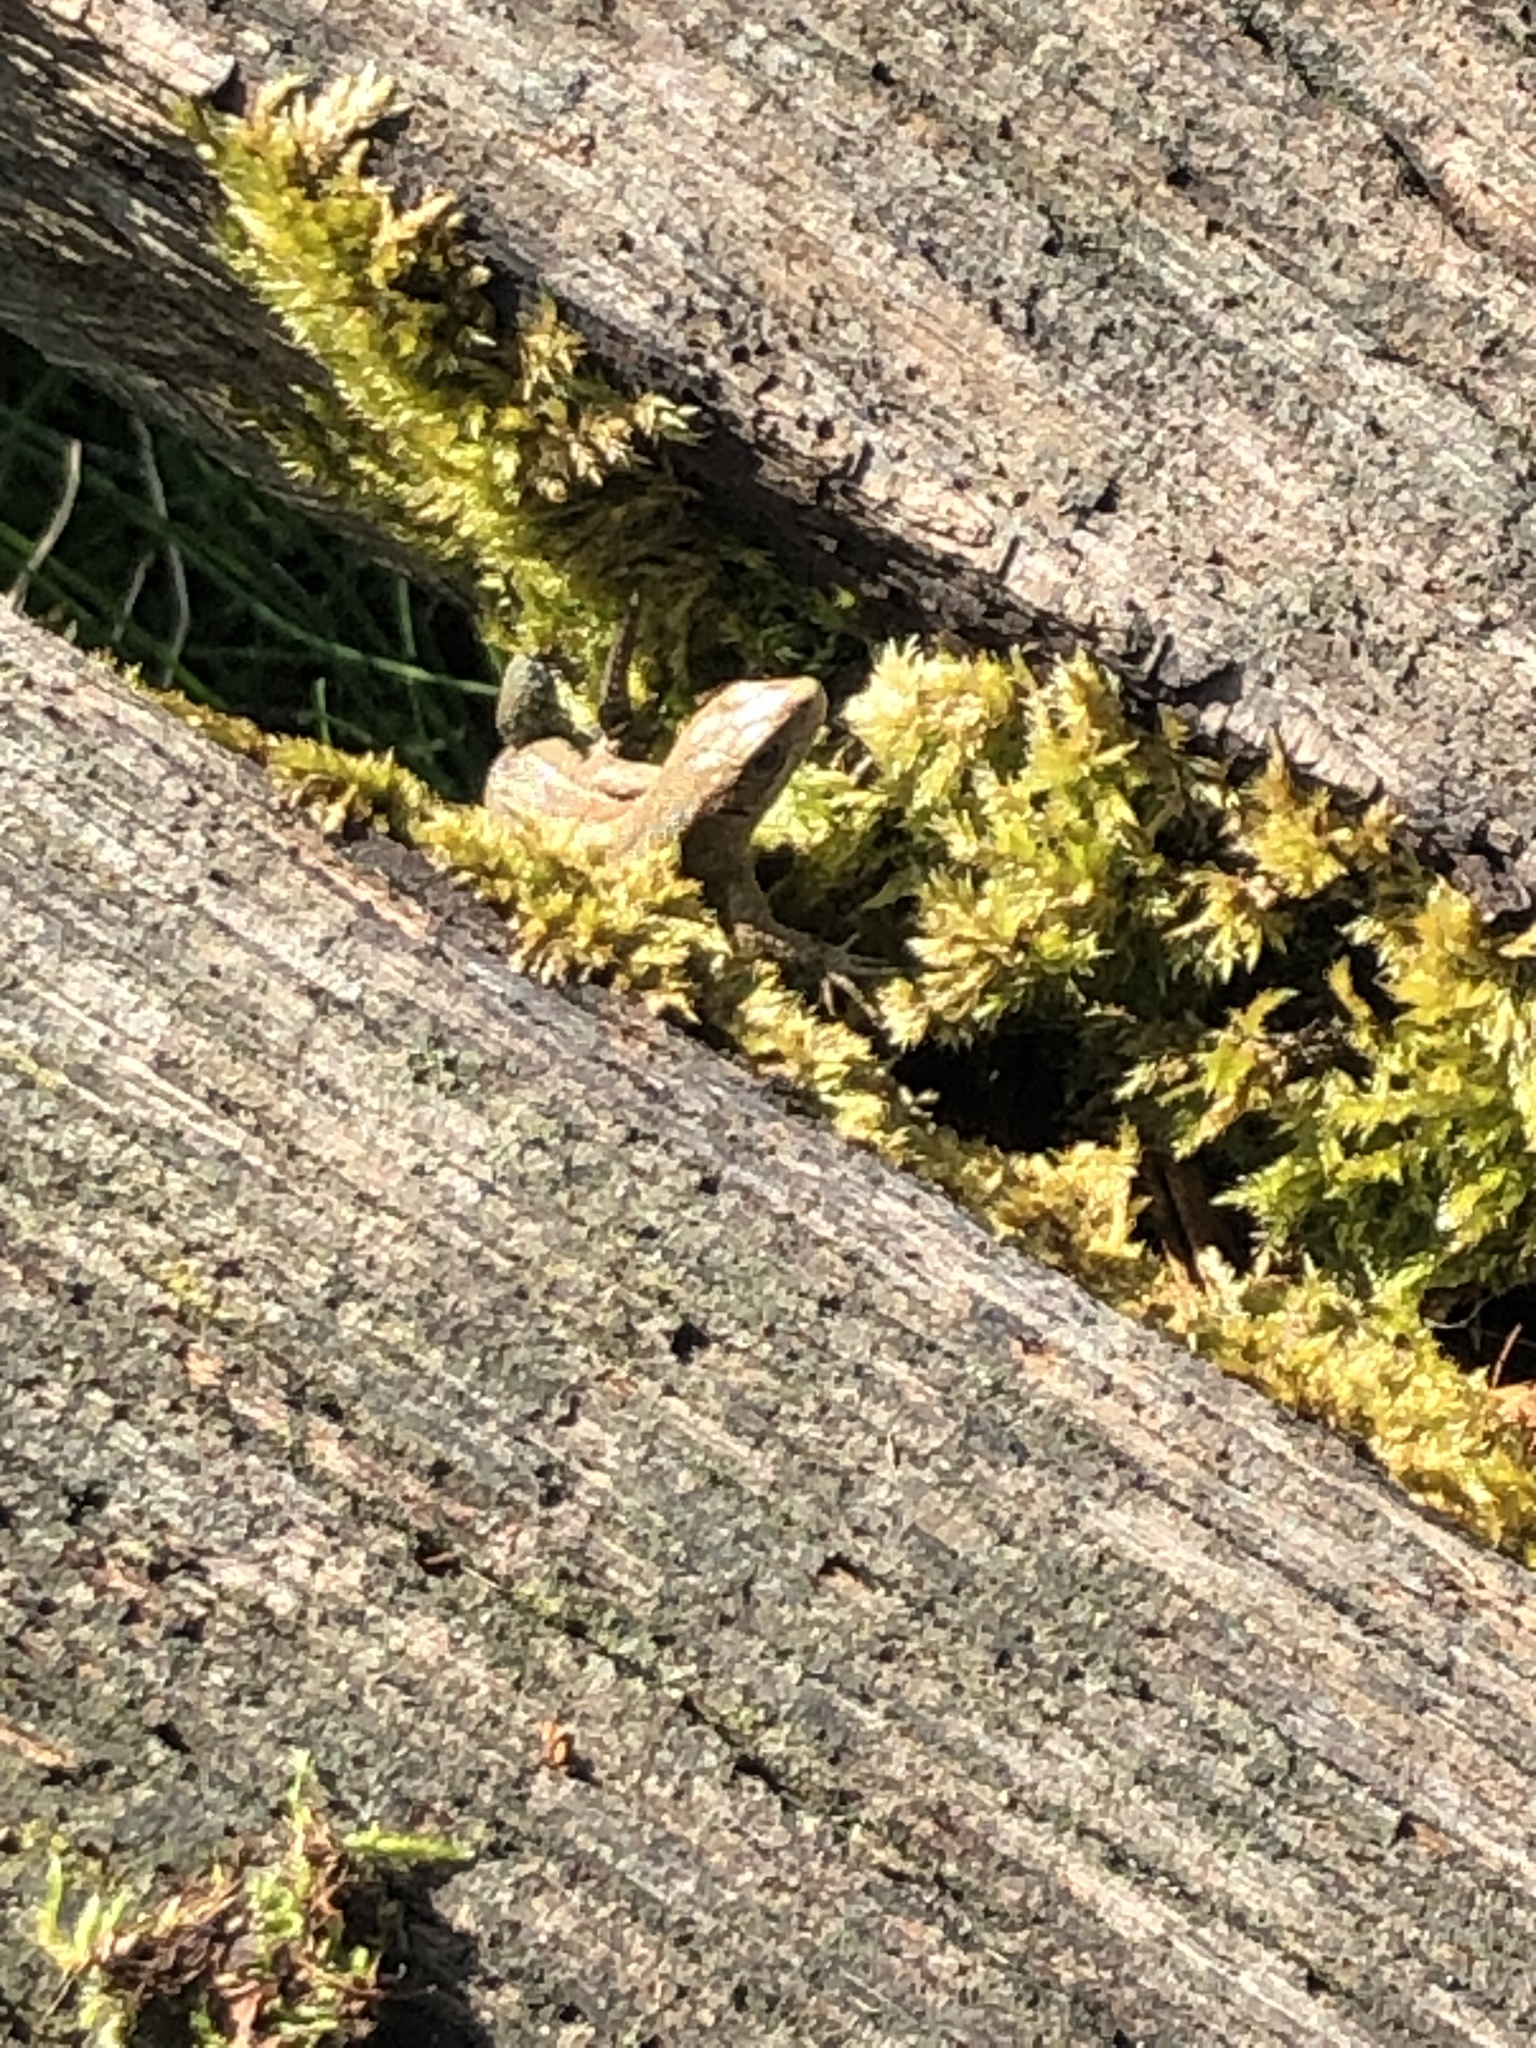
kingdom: Animalia
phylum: Chordata
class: Squamata
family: Lacertidae
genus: Zootoca
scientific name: Zootoca vivipara
